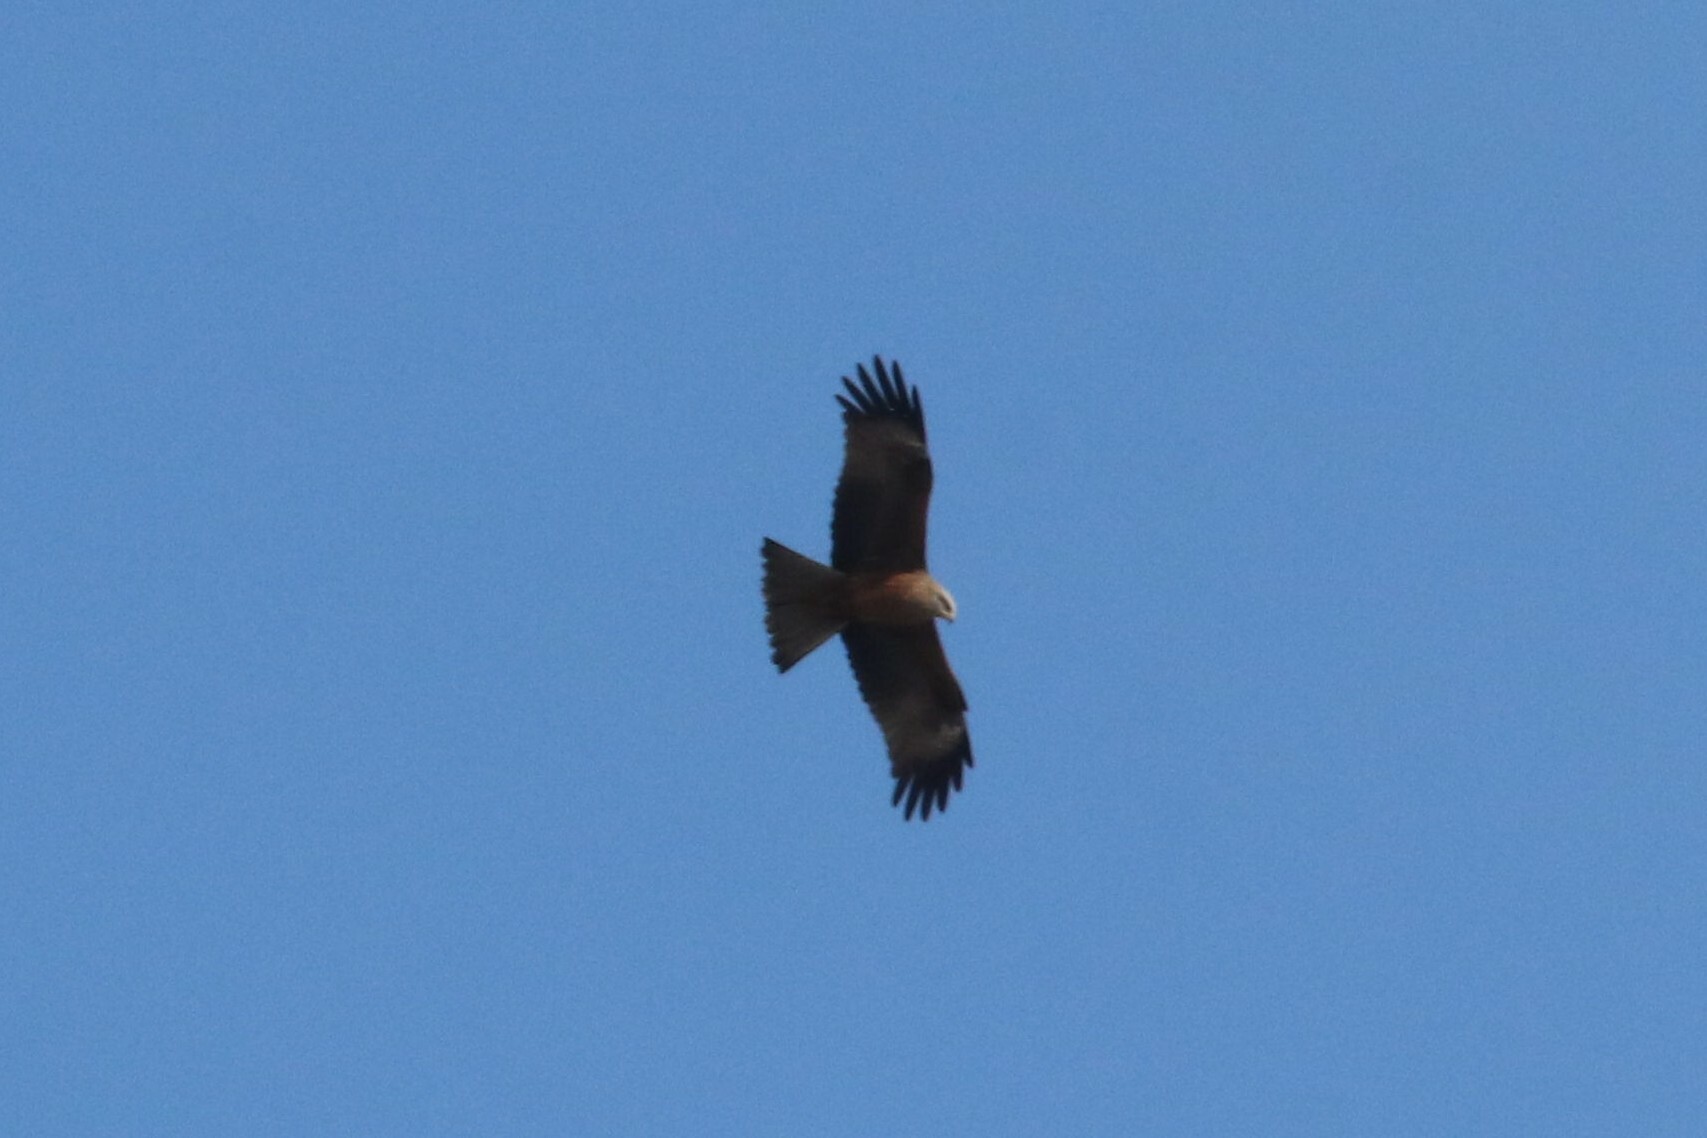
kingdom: Animalia
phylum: Chordata
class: Aves
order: Accipitriformes
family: Accipitridae
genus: Milvus
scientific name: Milvus migrans
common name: Black kite
